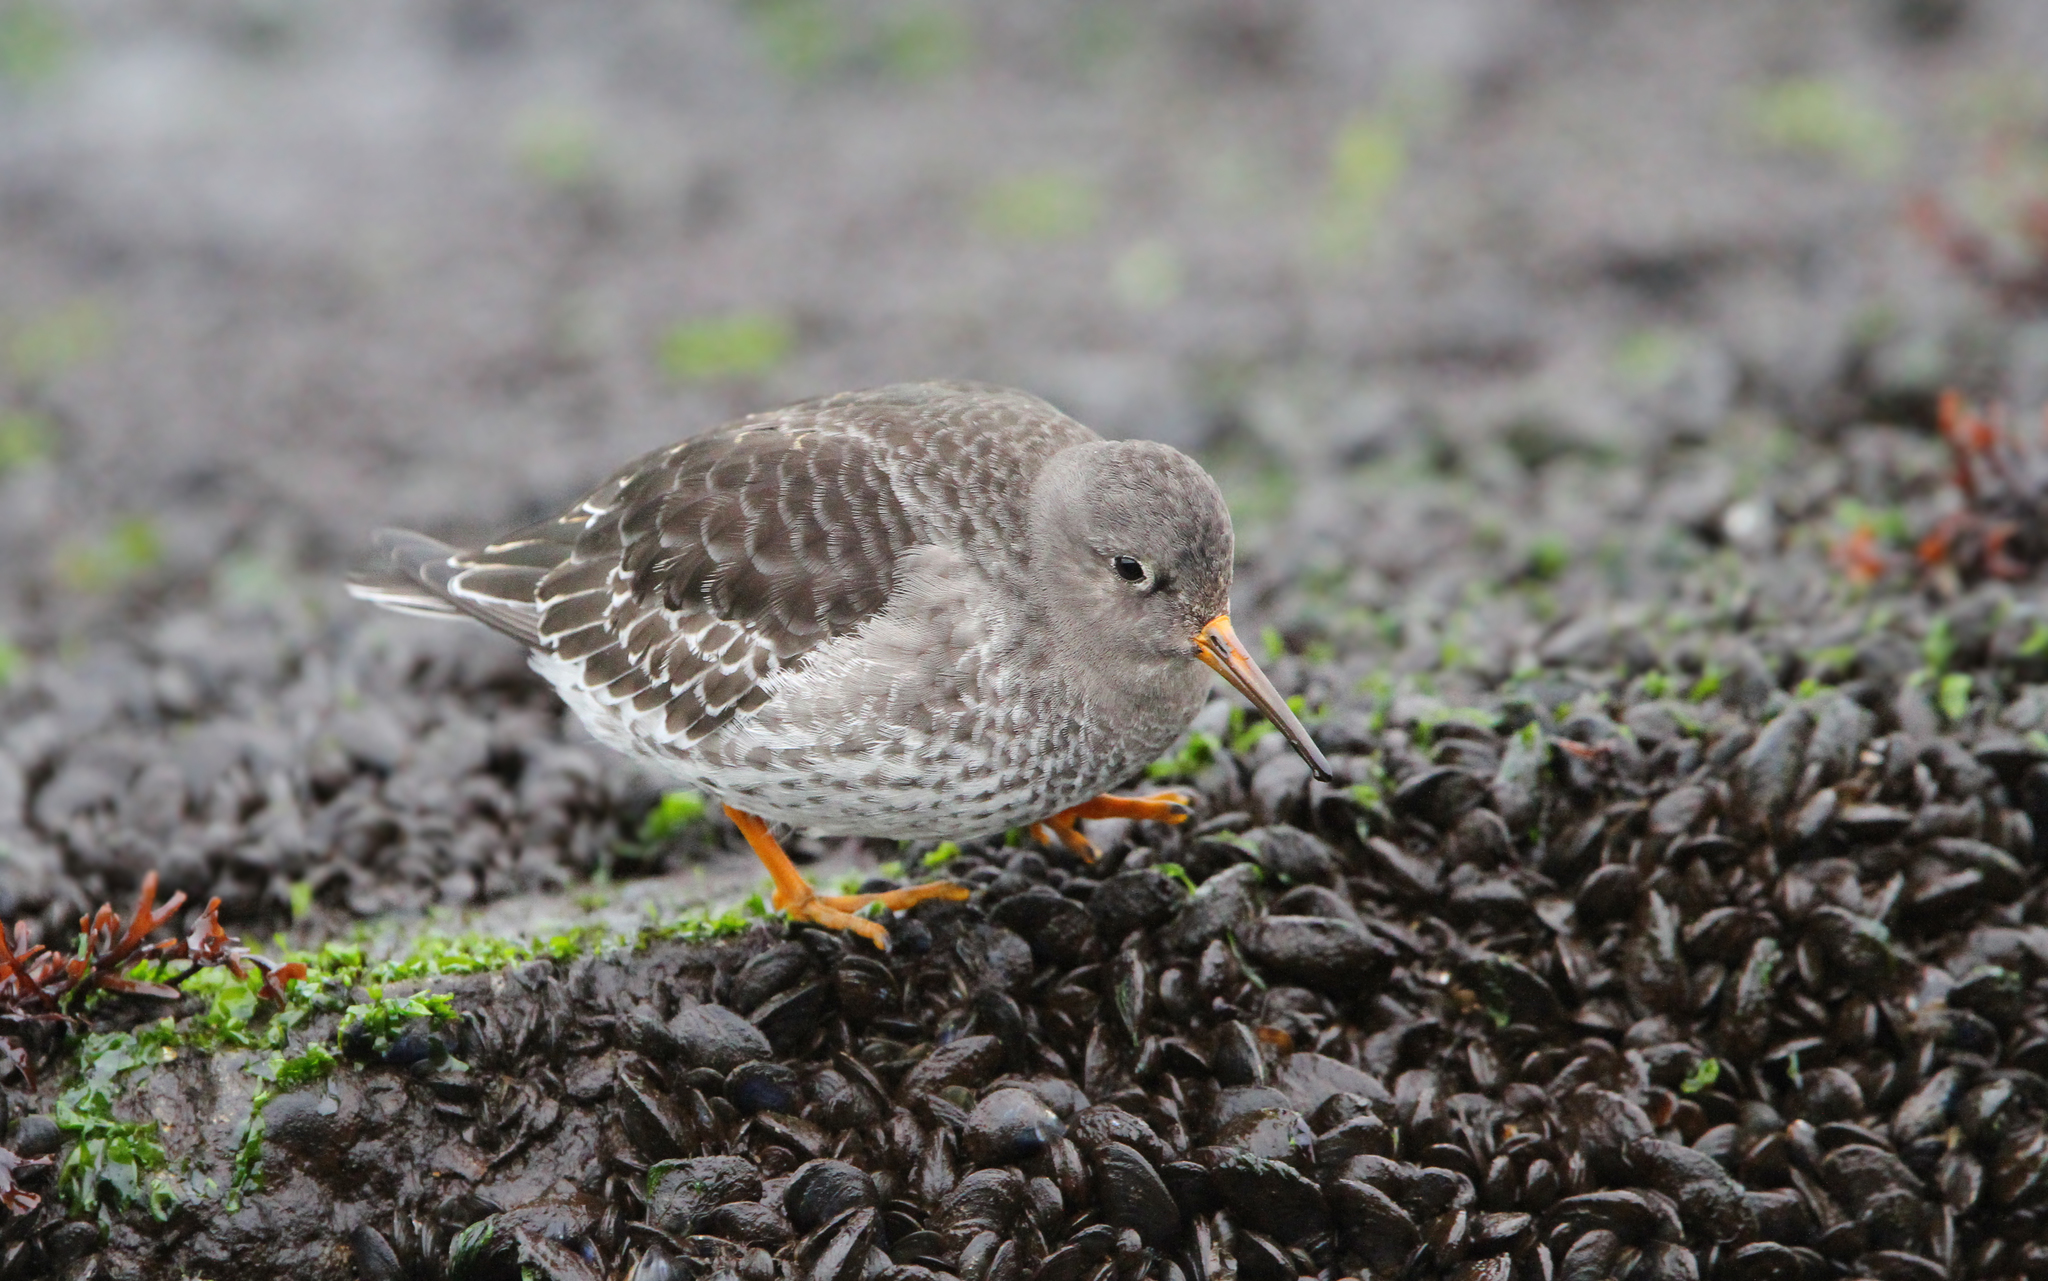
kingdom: Animalia
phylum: Chordata
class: Aves
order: Charadriiformes
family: Scolopacidae
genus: Calidris
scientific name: Calidris maritima
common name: Purple sandpiper
